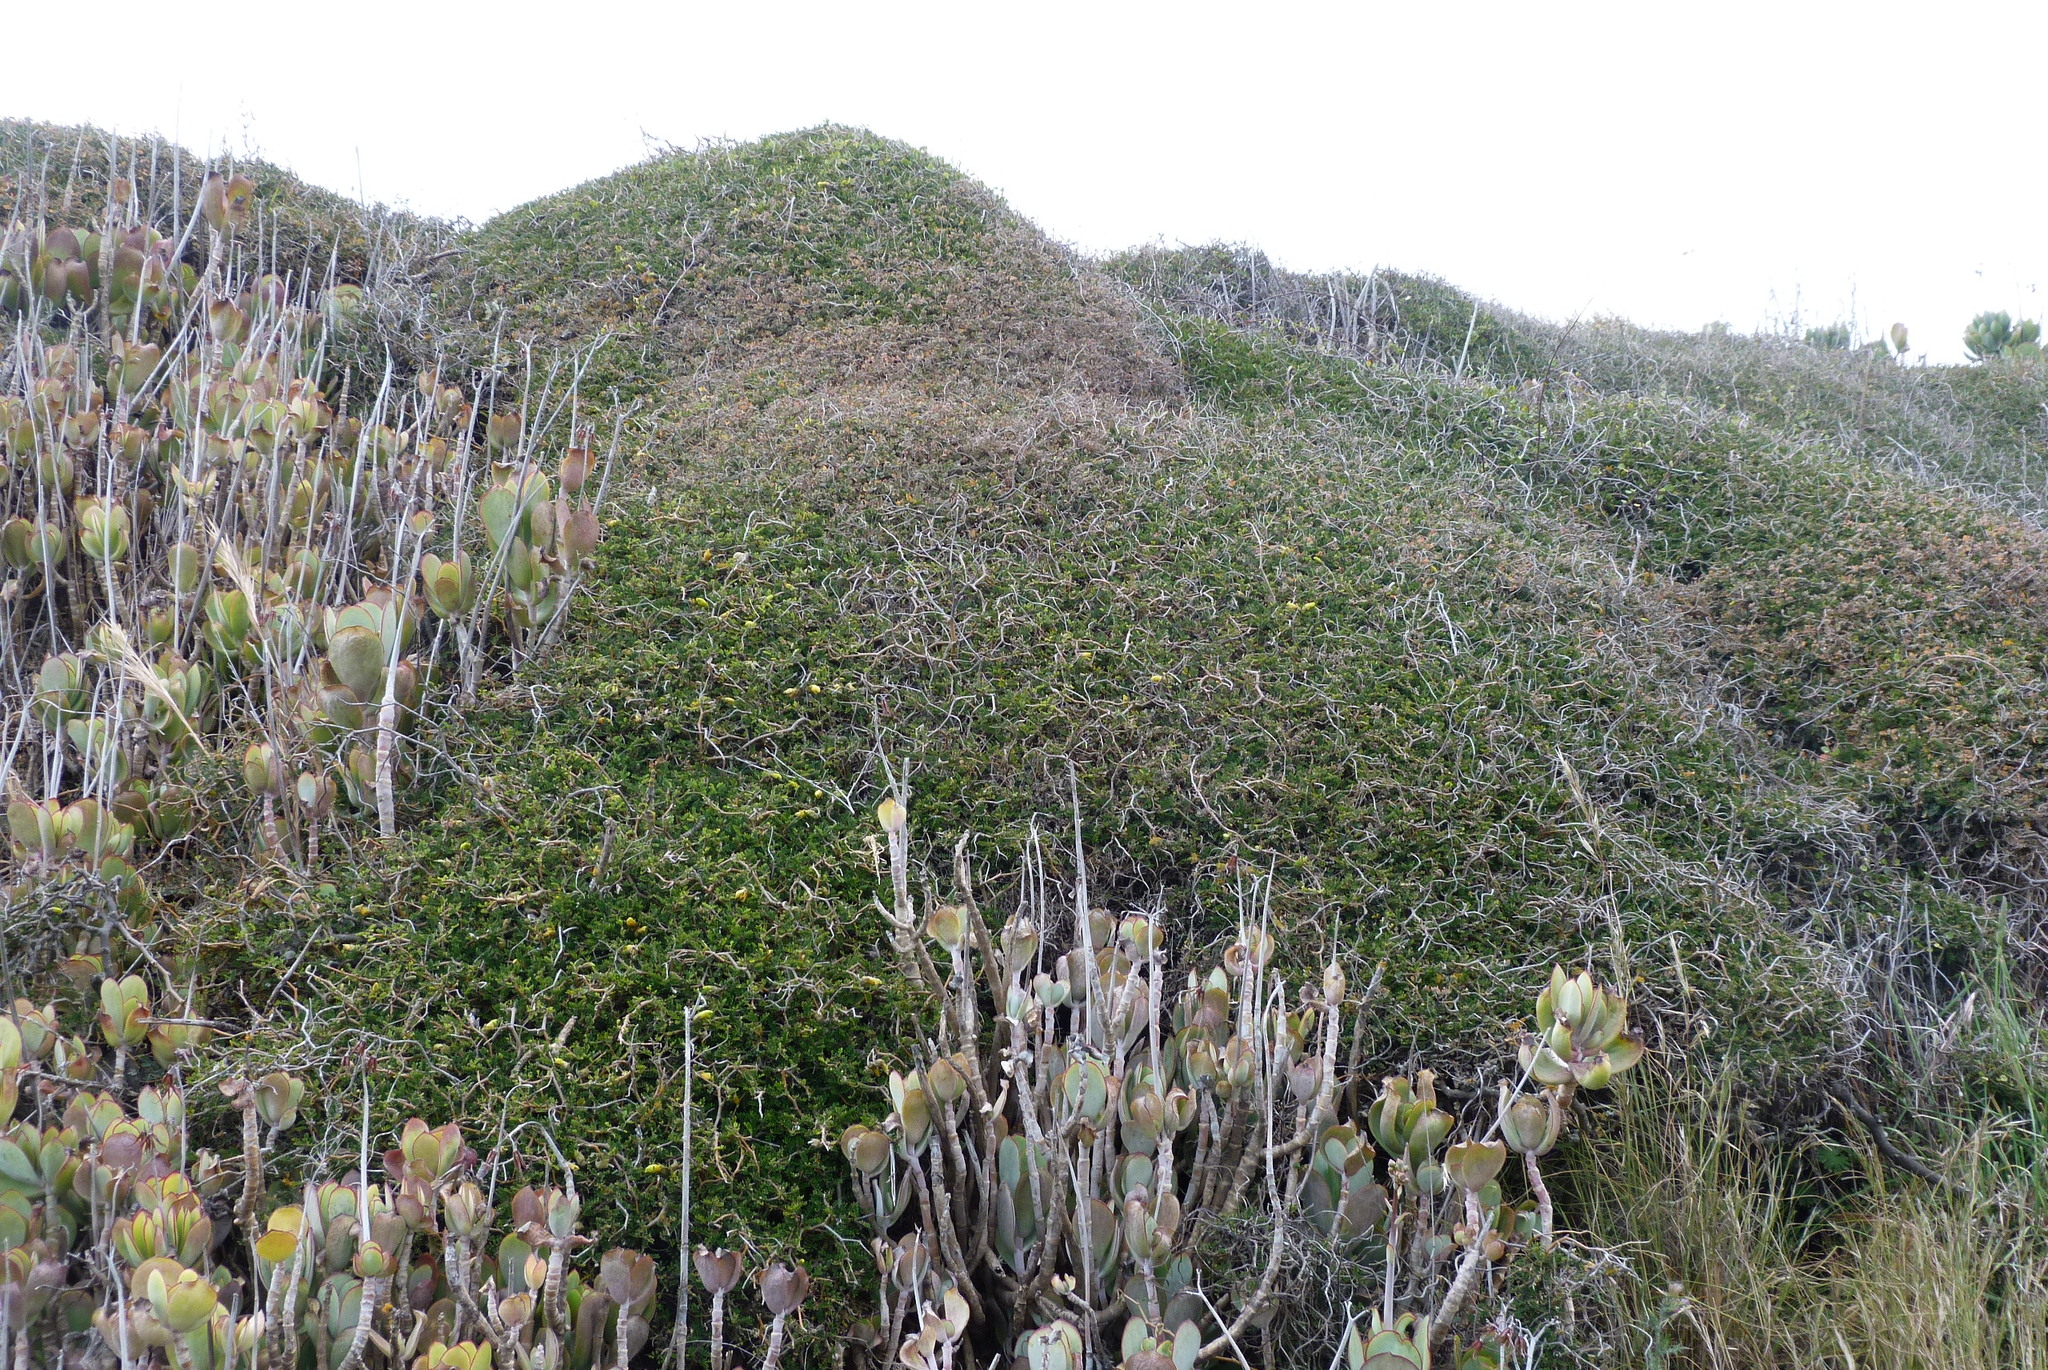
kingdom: Plantae
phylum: Tracheophyta
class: Magnoliopsida
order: Fabales
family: Fabaceae
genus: Sophora
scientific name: Sophora prostrata
